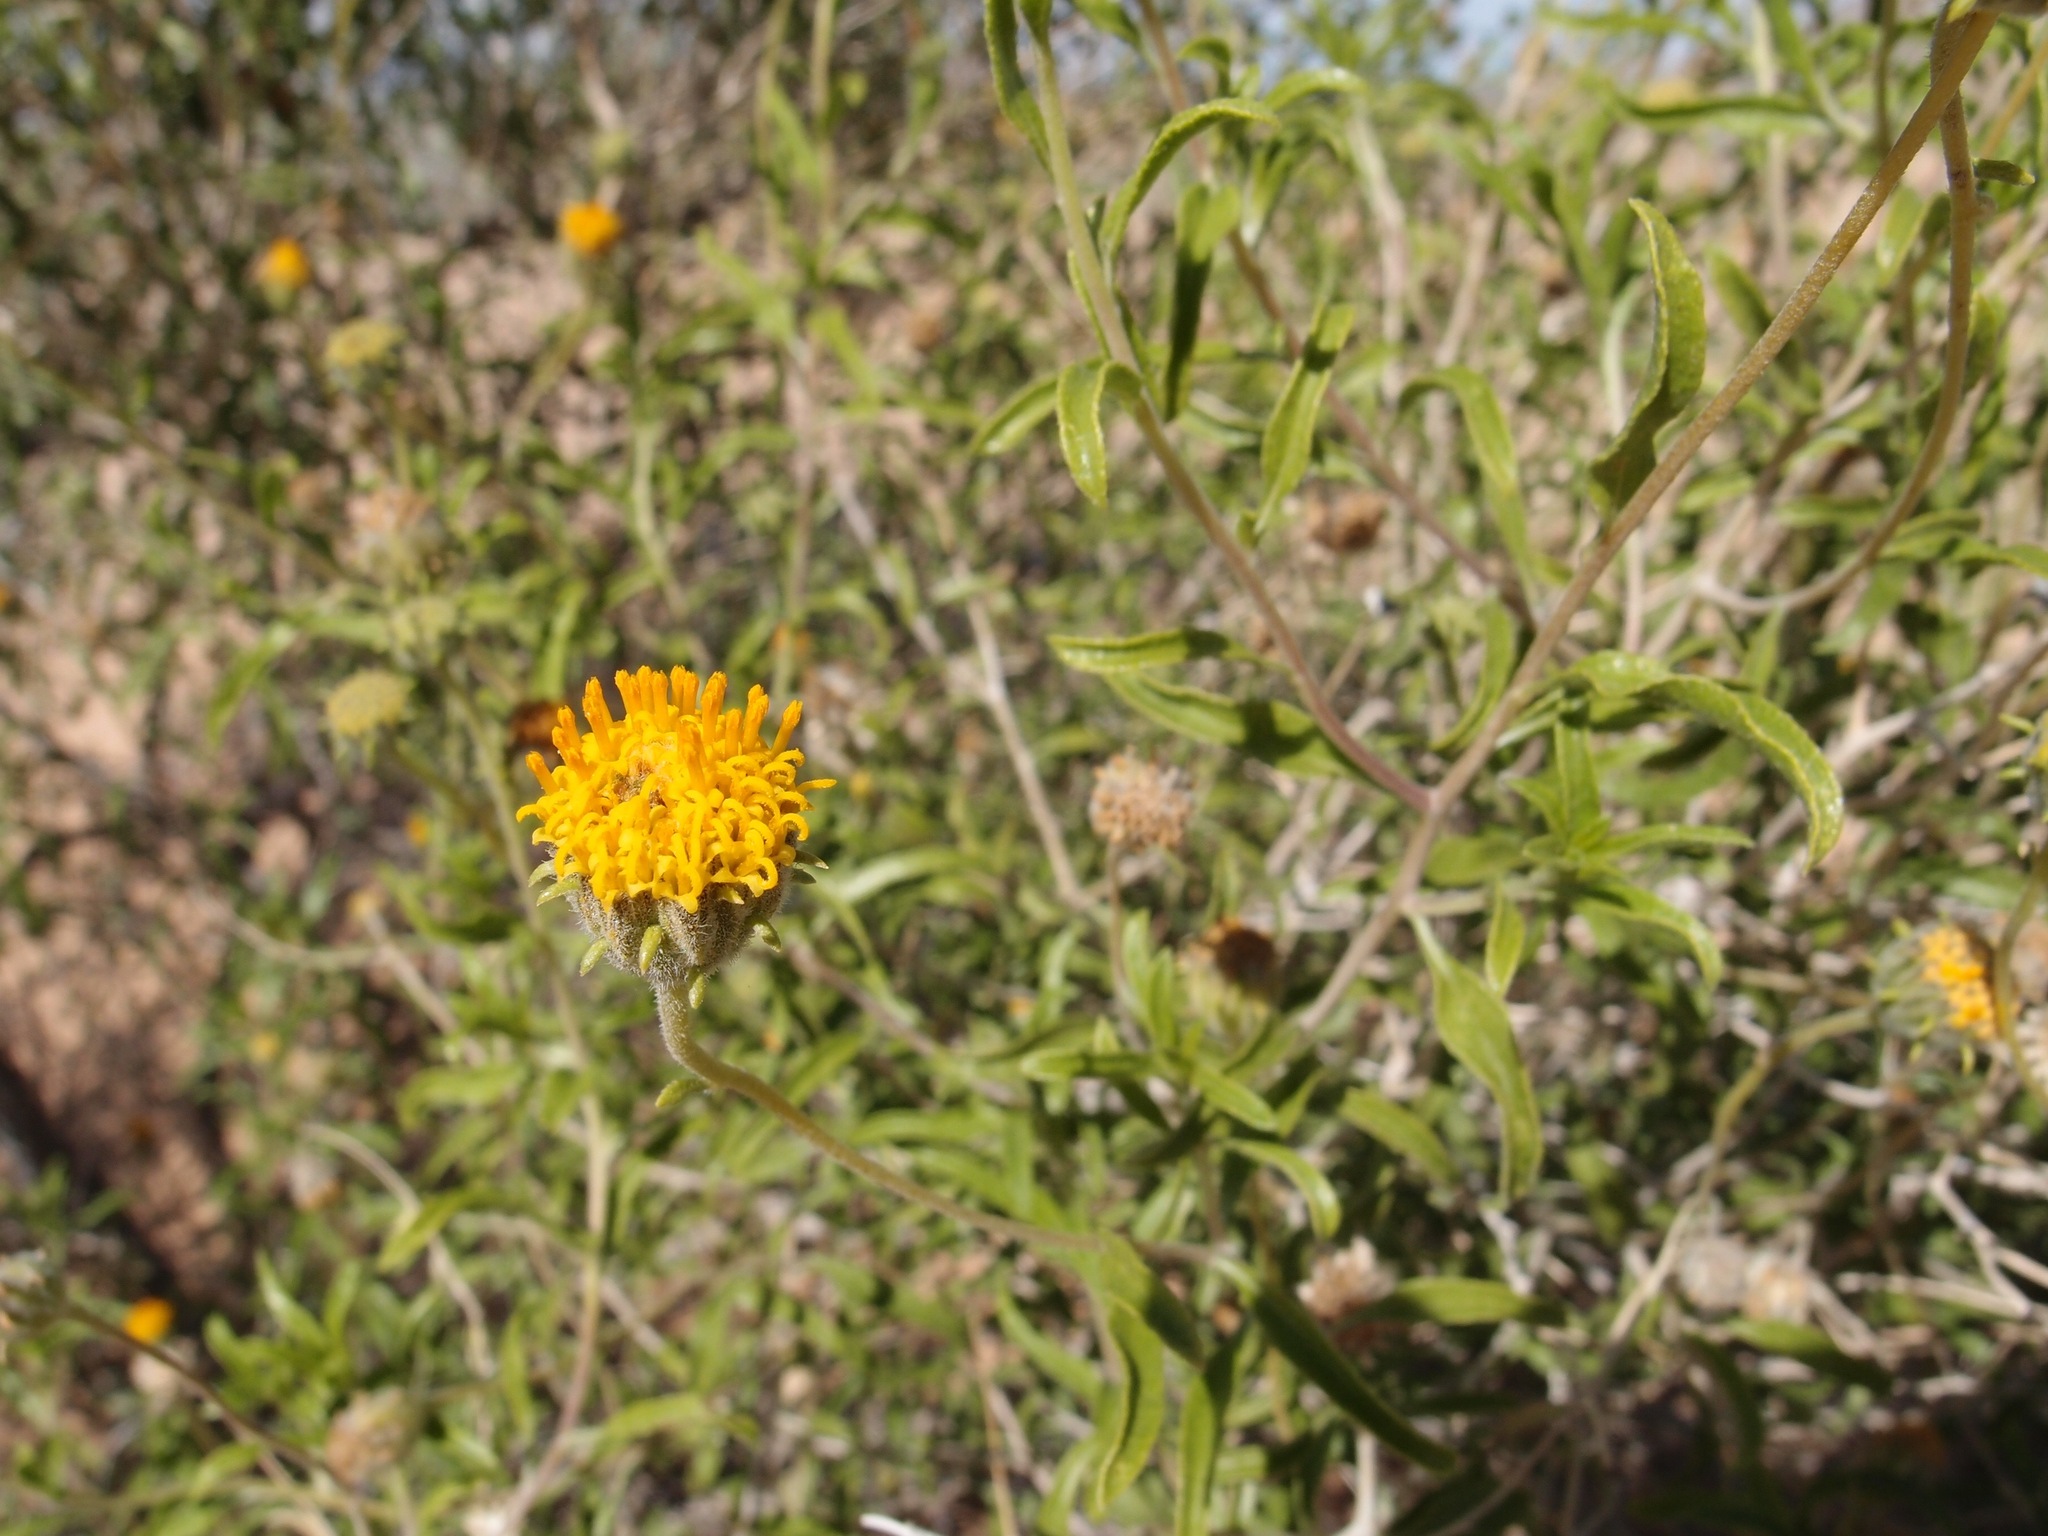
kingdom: Plantae
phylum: Tracheophyta
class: Magnoliopsida
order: Asterales
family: Asteraceae
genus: Encelia
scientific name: Encelia frutescens
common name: Bush encelia
